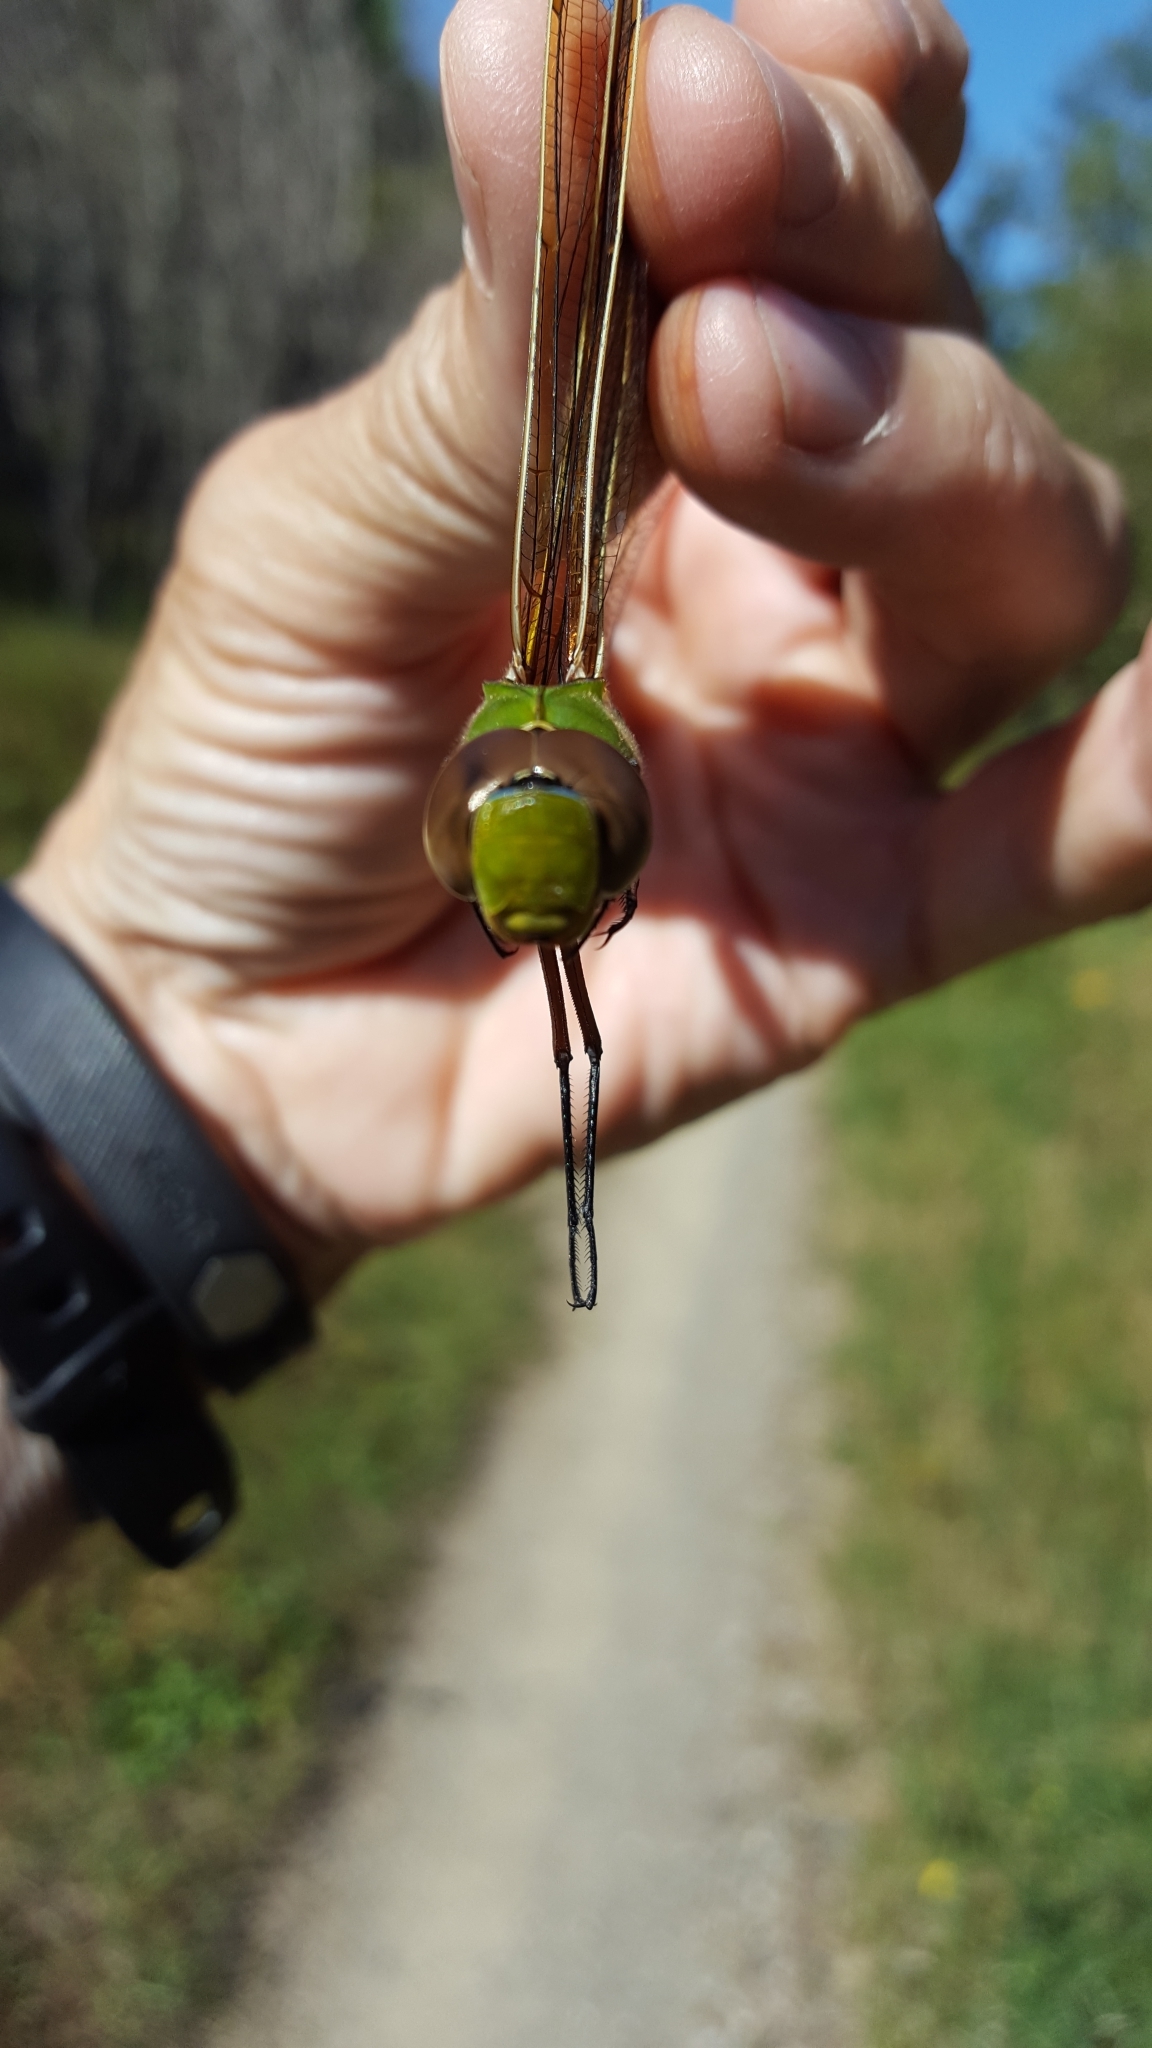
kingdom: Animalia
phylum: Arthropoda
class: Insecta
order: Odonata
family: Aeshnidae
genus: Anax
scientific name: Anax junius
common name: Common green darner
